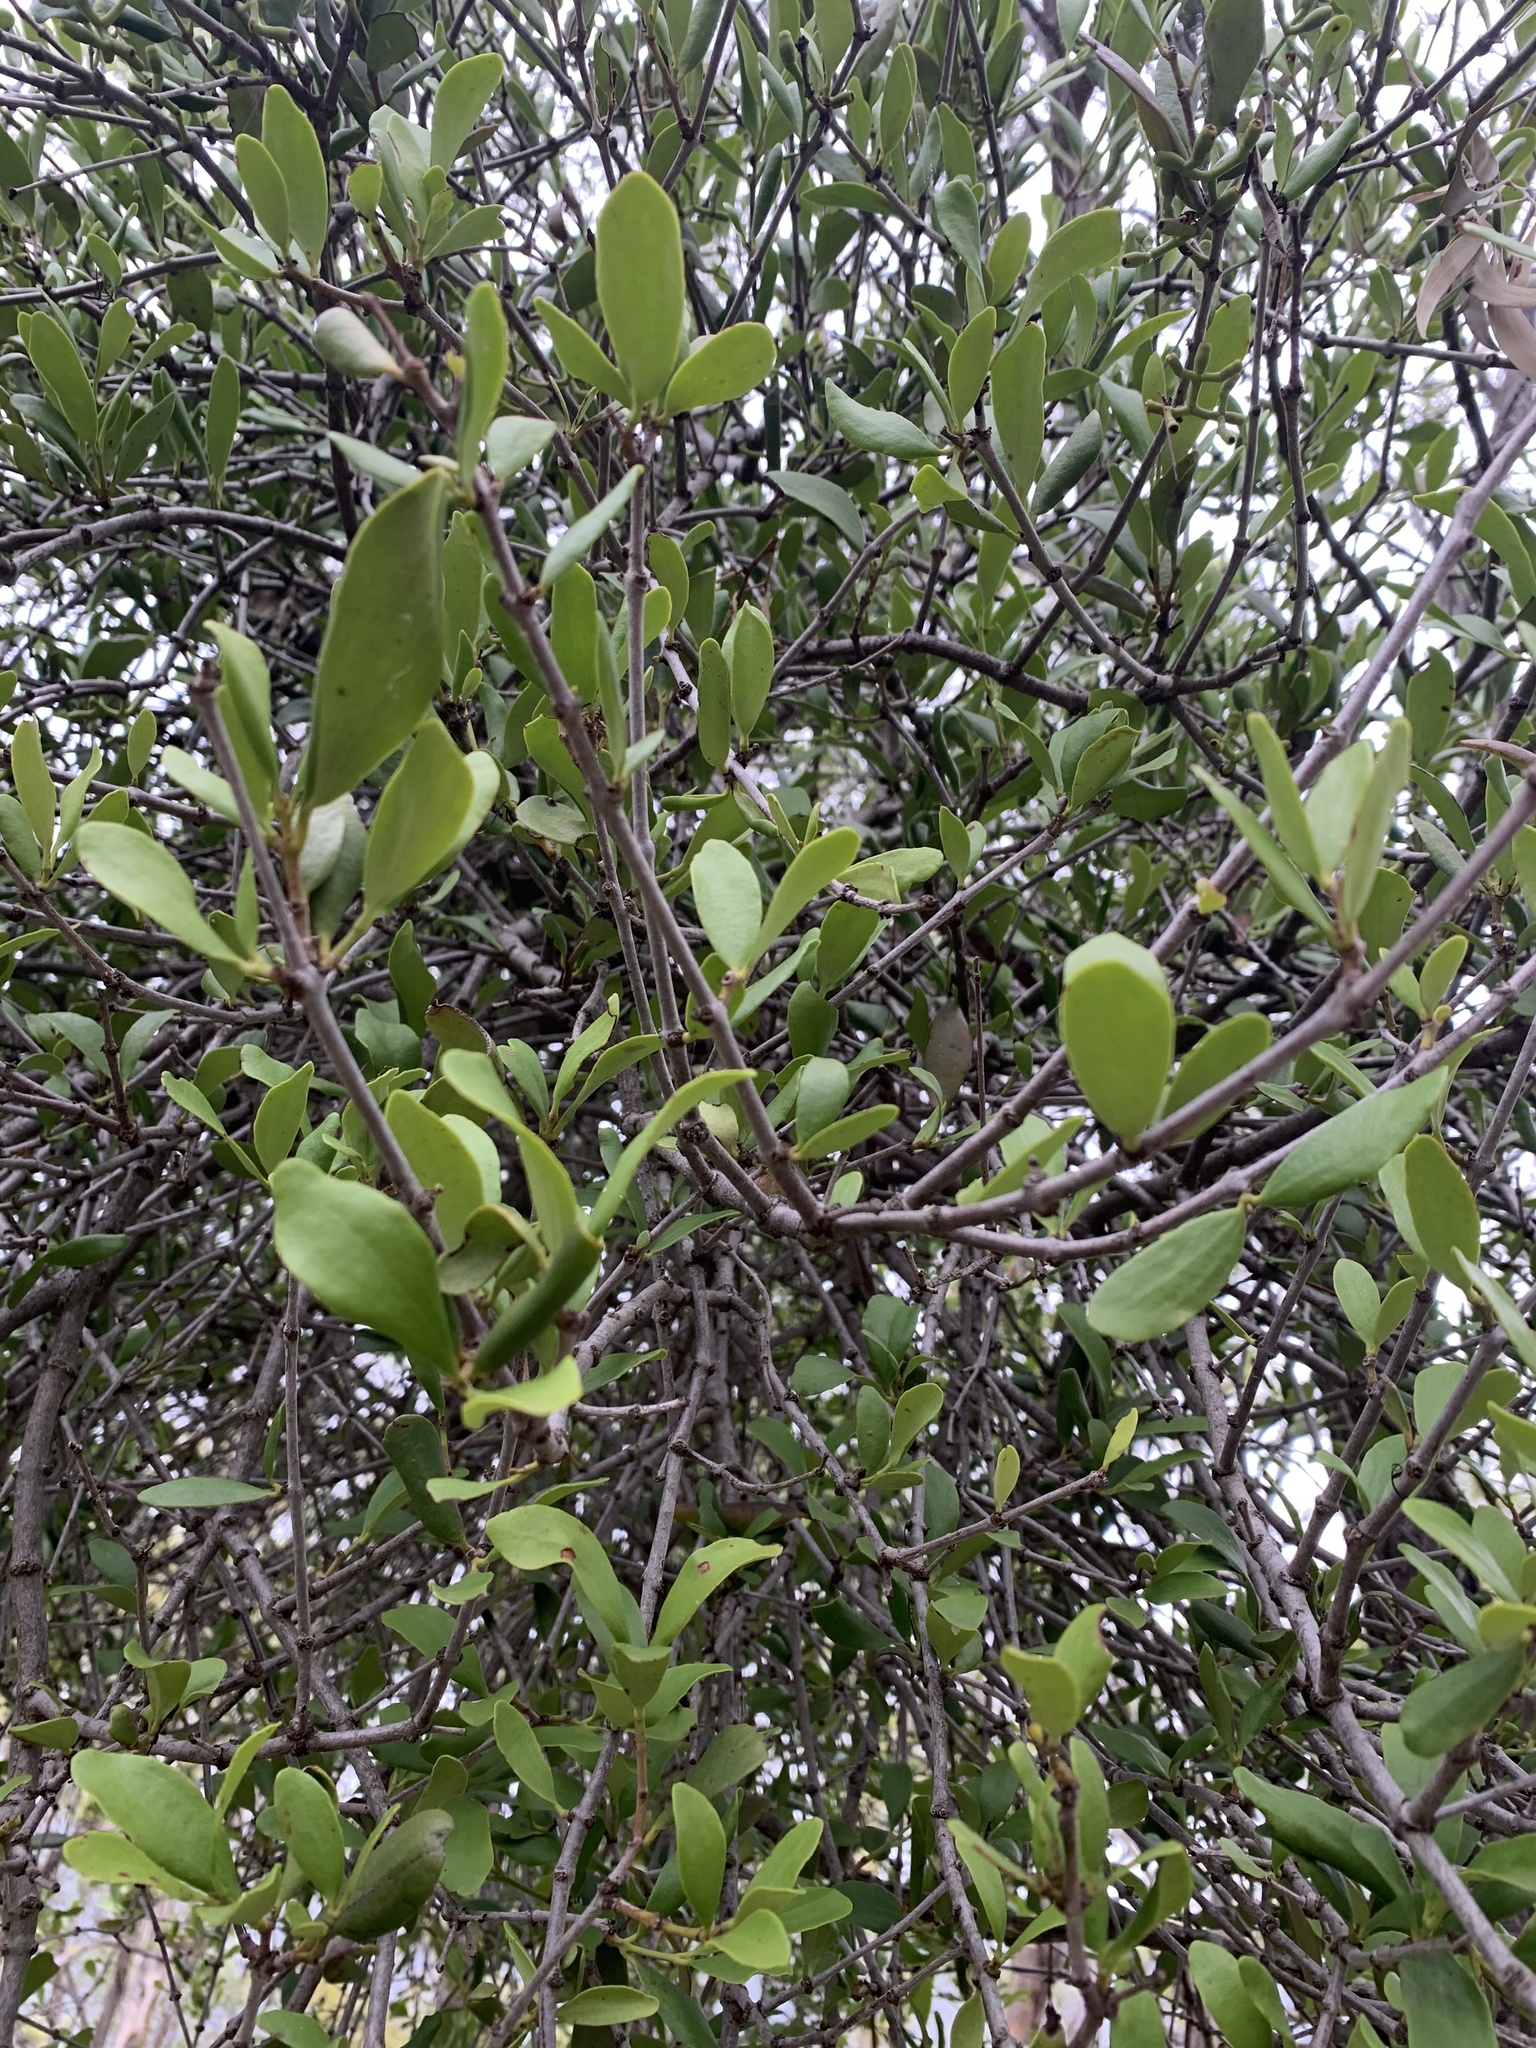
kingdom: Plantae
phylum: Tracheophyta
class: Magnoliopsida
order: Santalales
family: Loranthaceae
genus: Amyema
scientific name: Amyema congener
